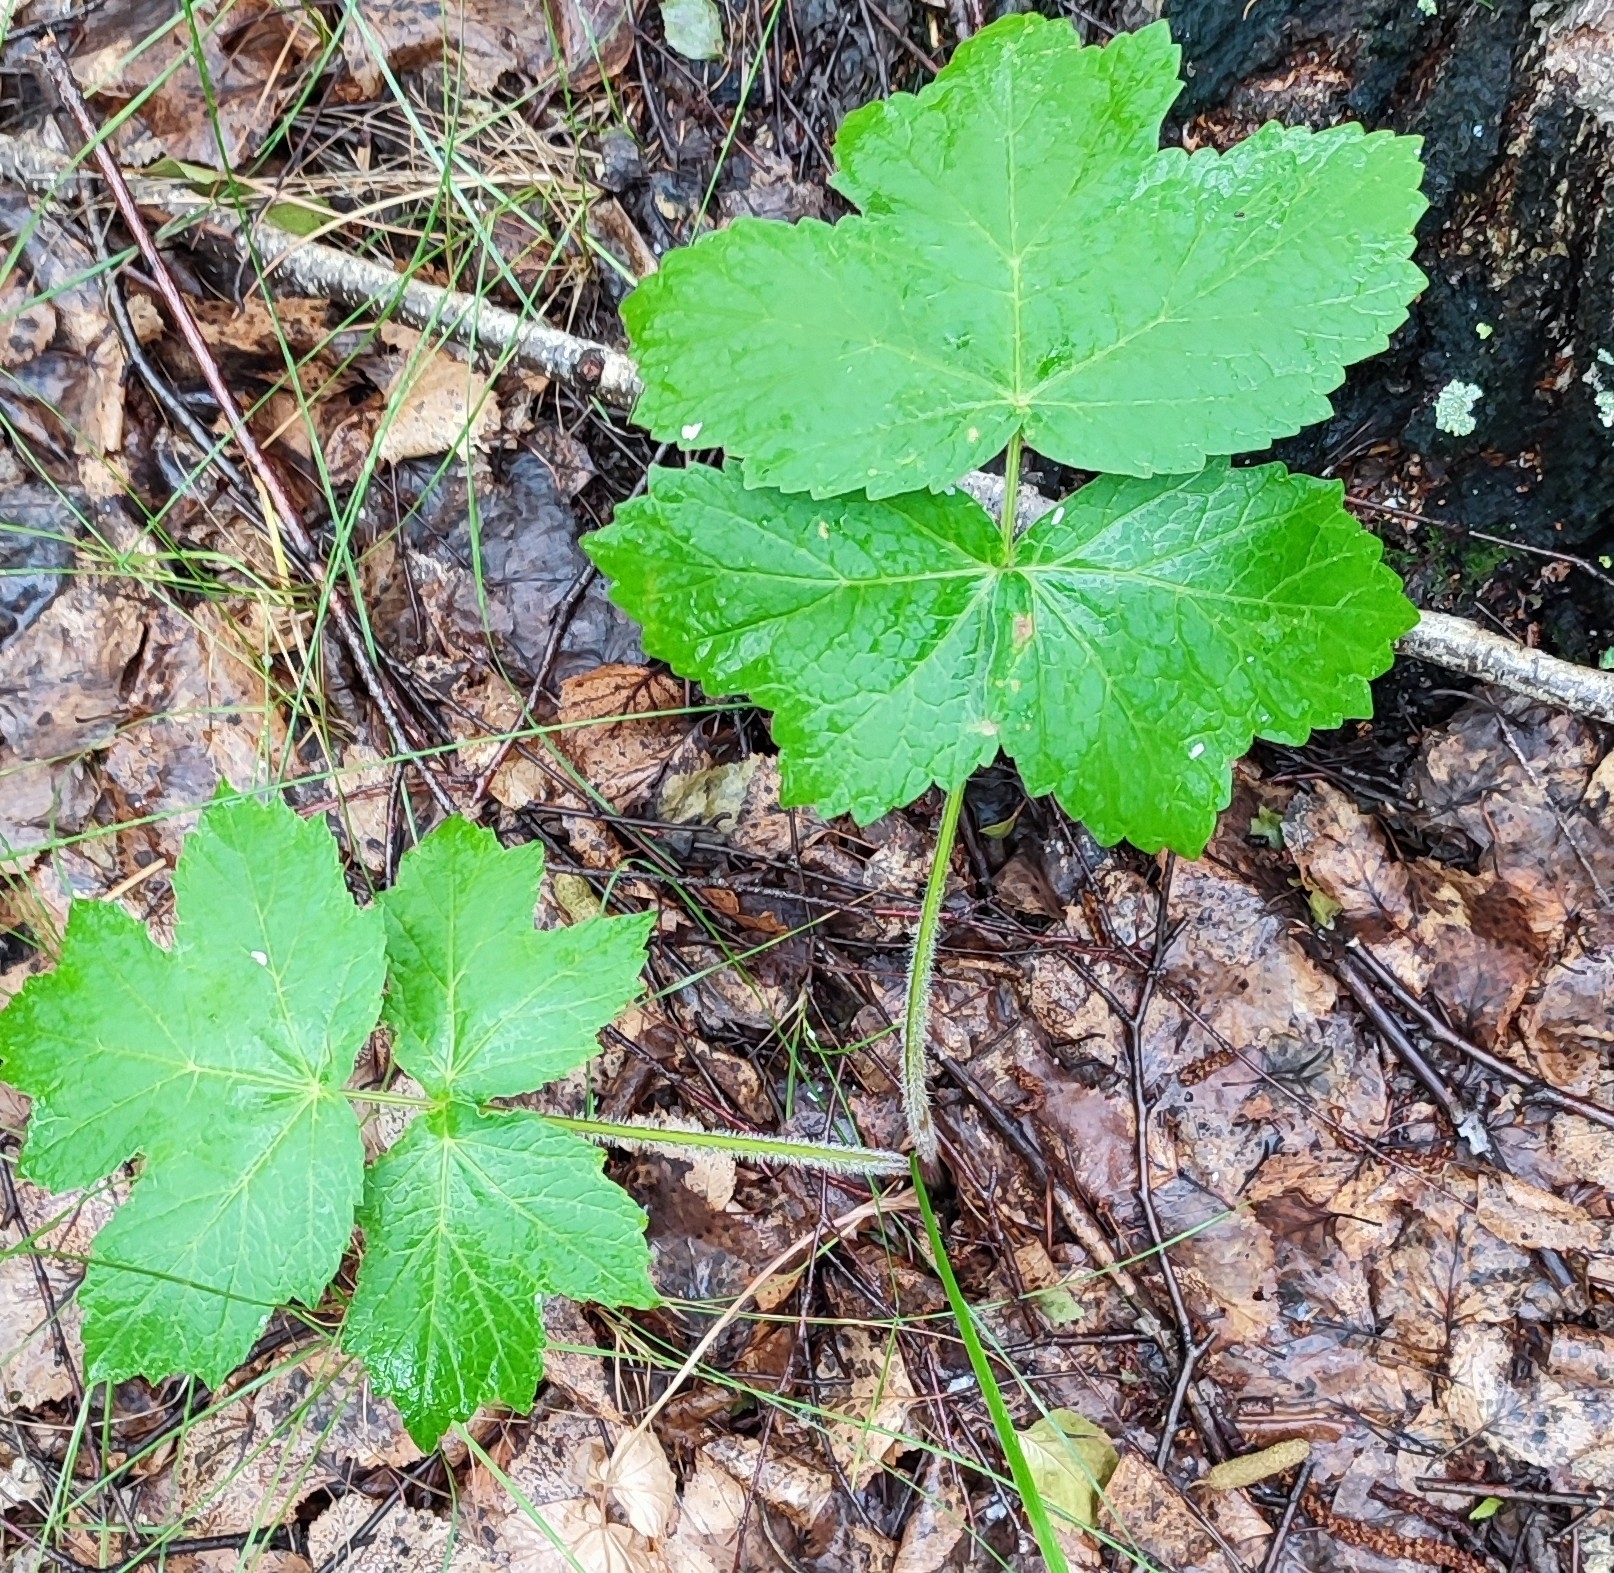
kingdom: Plantae
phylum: Tracheophyta
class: Magnoliopsida
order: Apiales
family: Apiaceae
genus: Heracleum
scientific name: Heracleum sphondylium
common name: Hogweed
